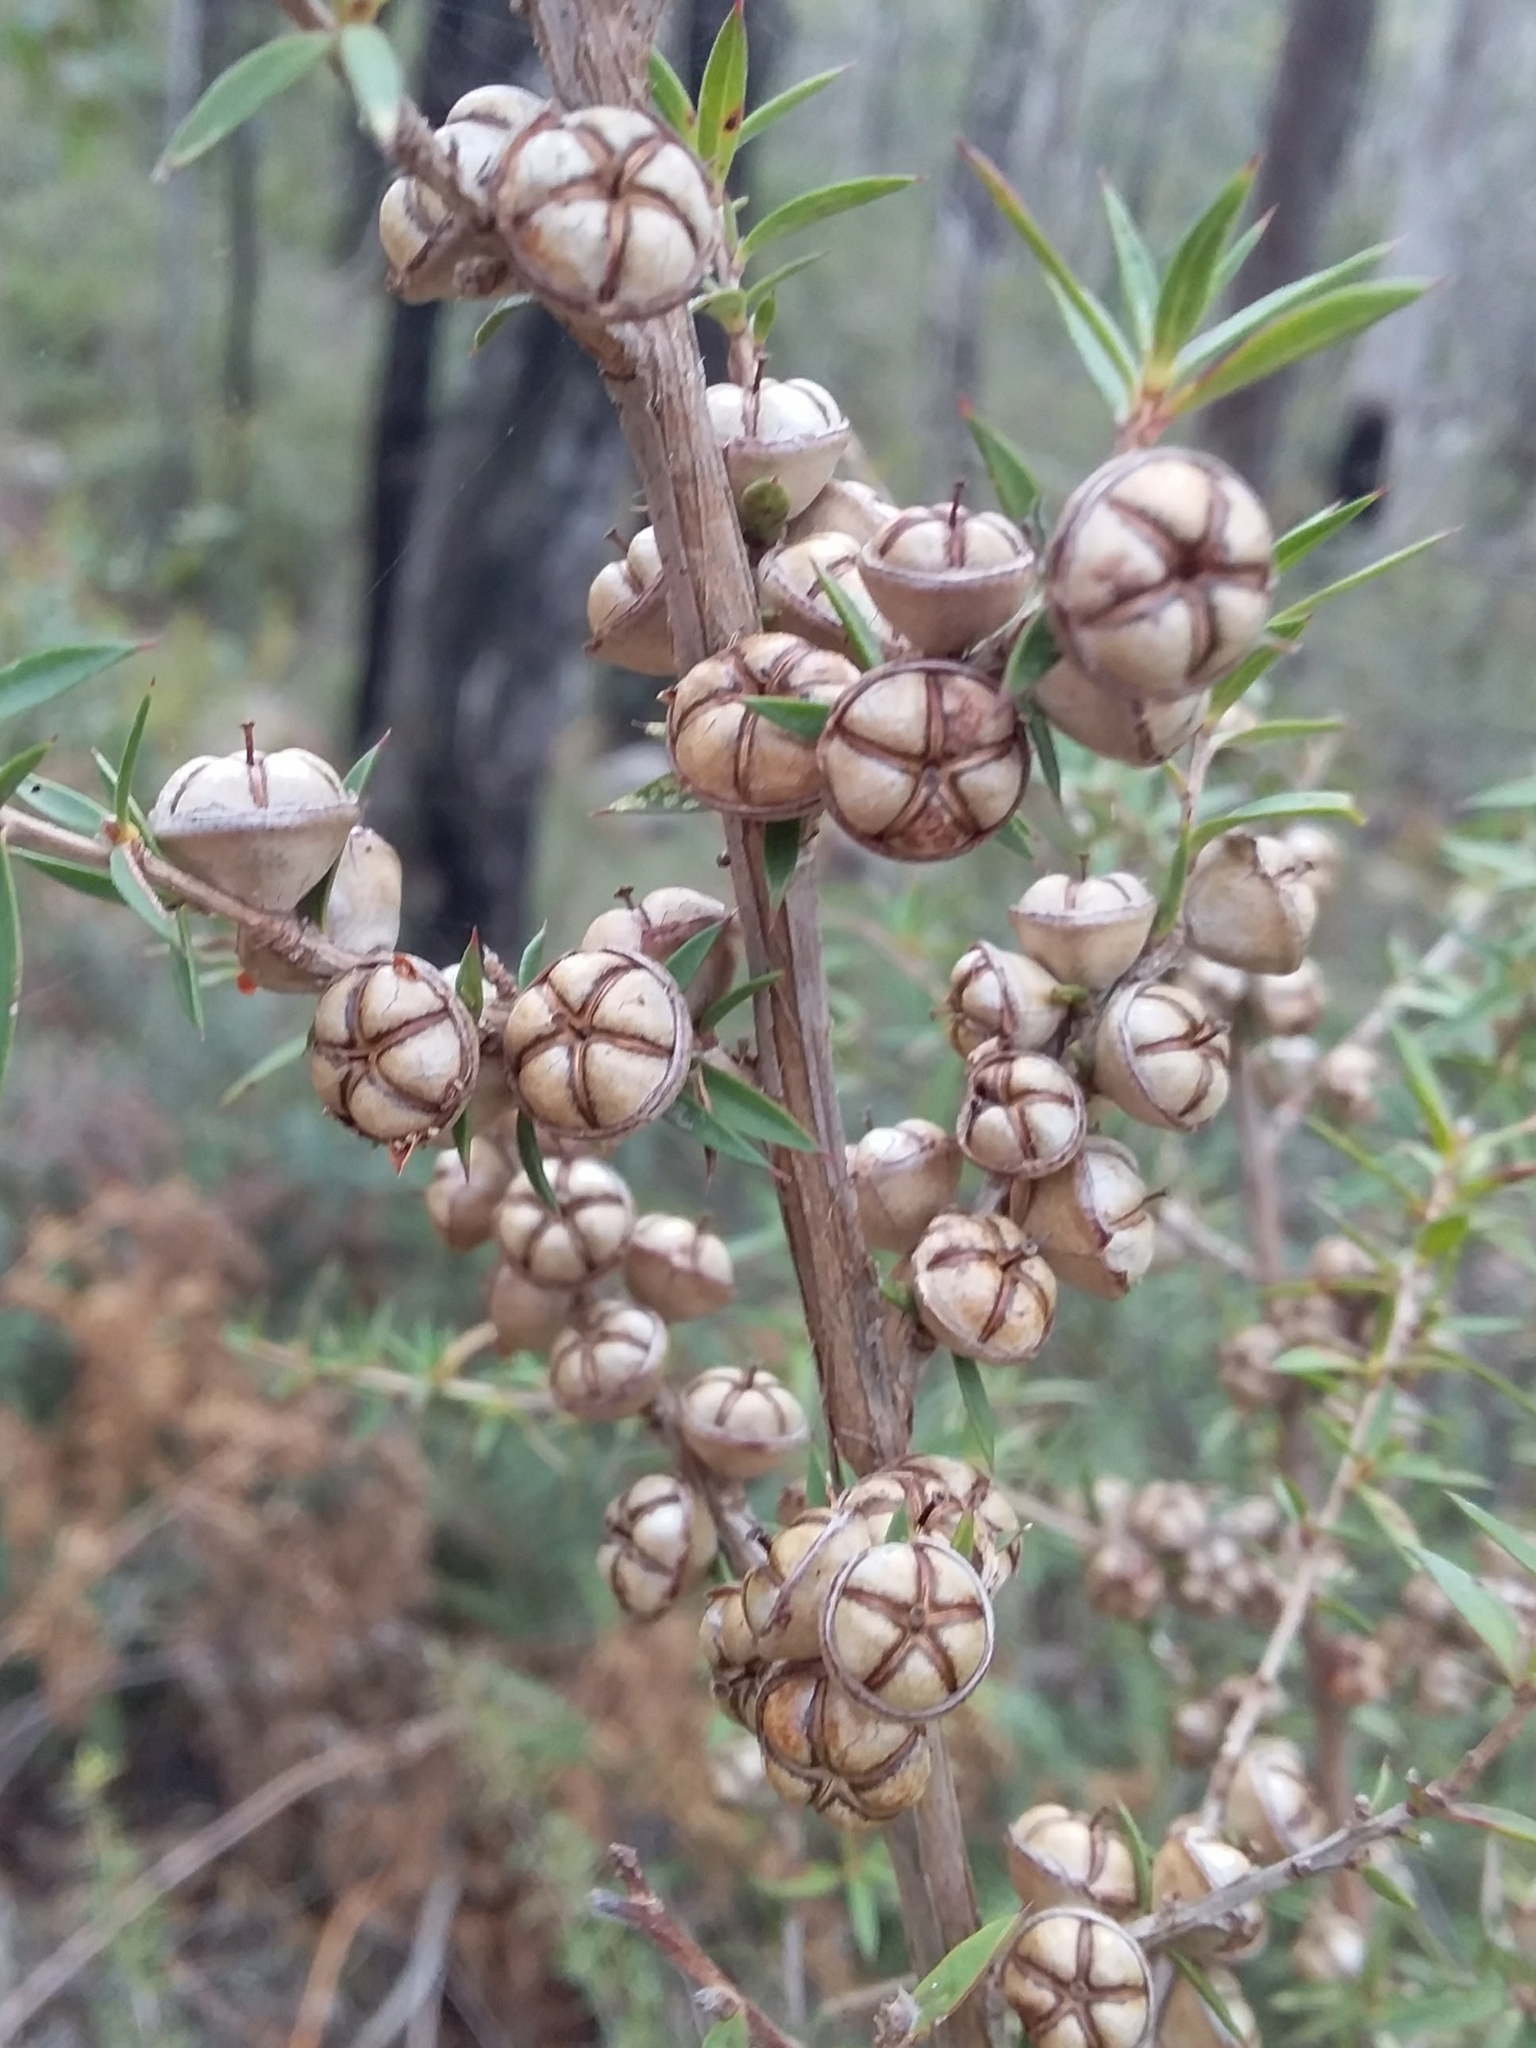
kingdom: Plantae
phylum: Tracheophyta
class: Magnoliopsida
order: Myrtales
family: Myrtaceae
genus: Leptospermum
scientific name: Leptospermum continentale
